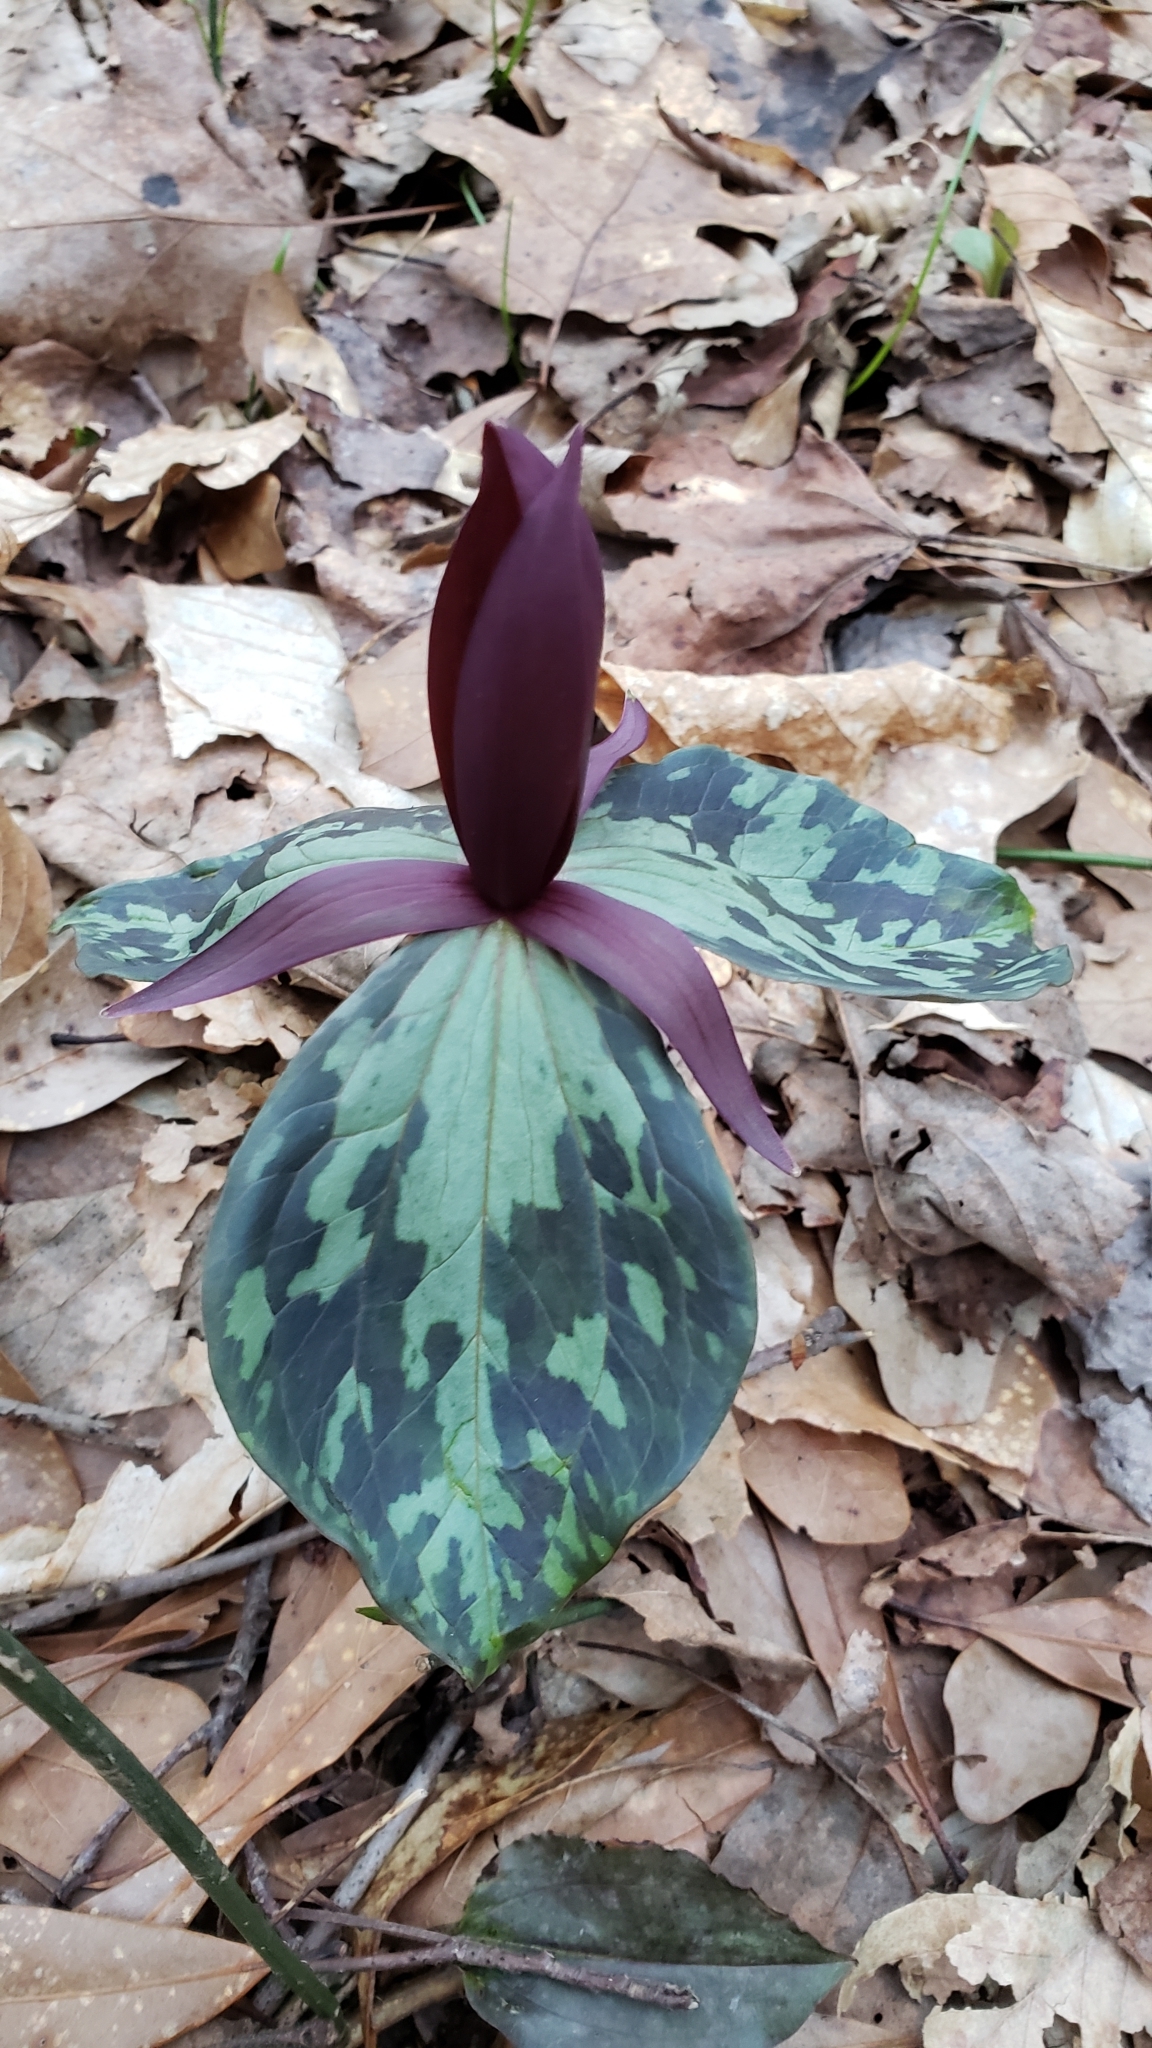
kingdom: Plantae
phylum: Tracheophyta
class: Liliopsida
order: Liliales
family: Melanthiaceae
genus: Trillium
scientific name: Trillium cuneatum
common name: Cuneate trillium
